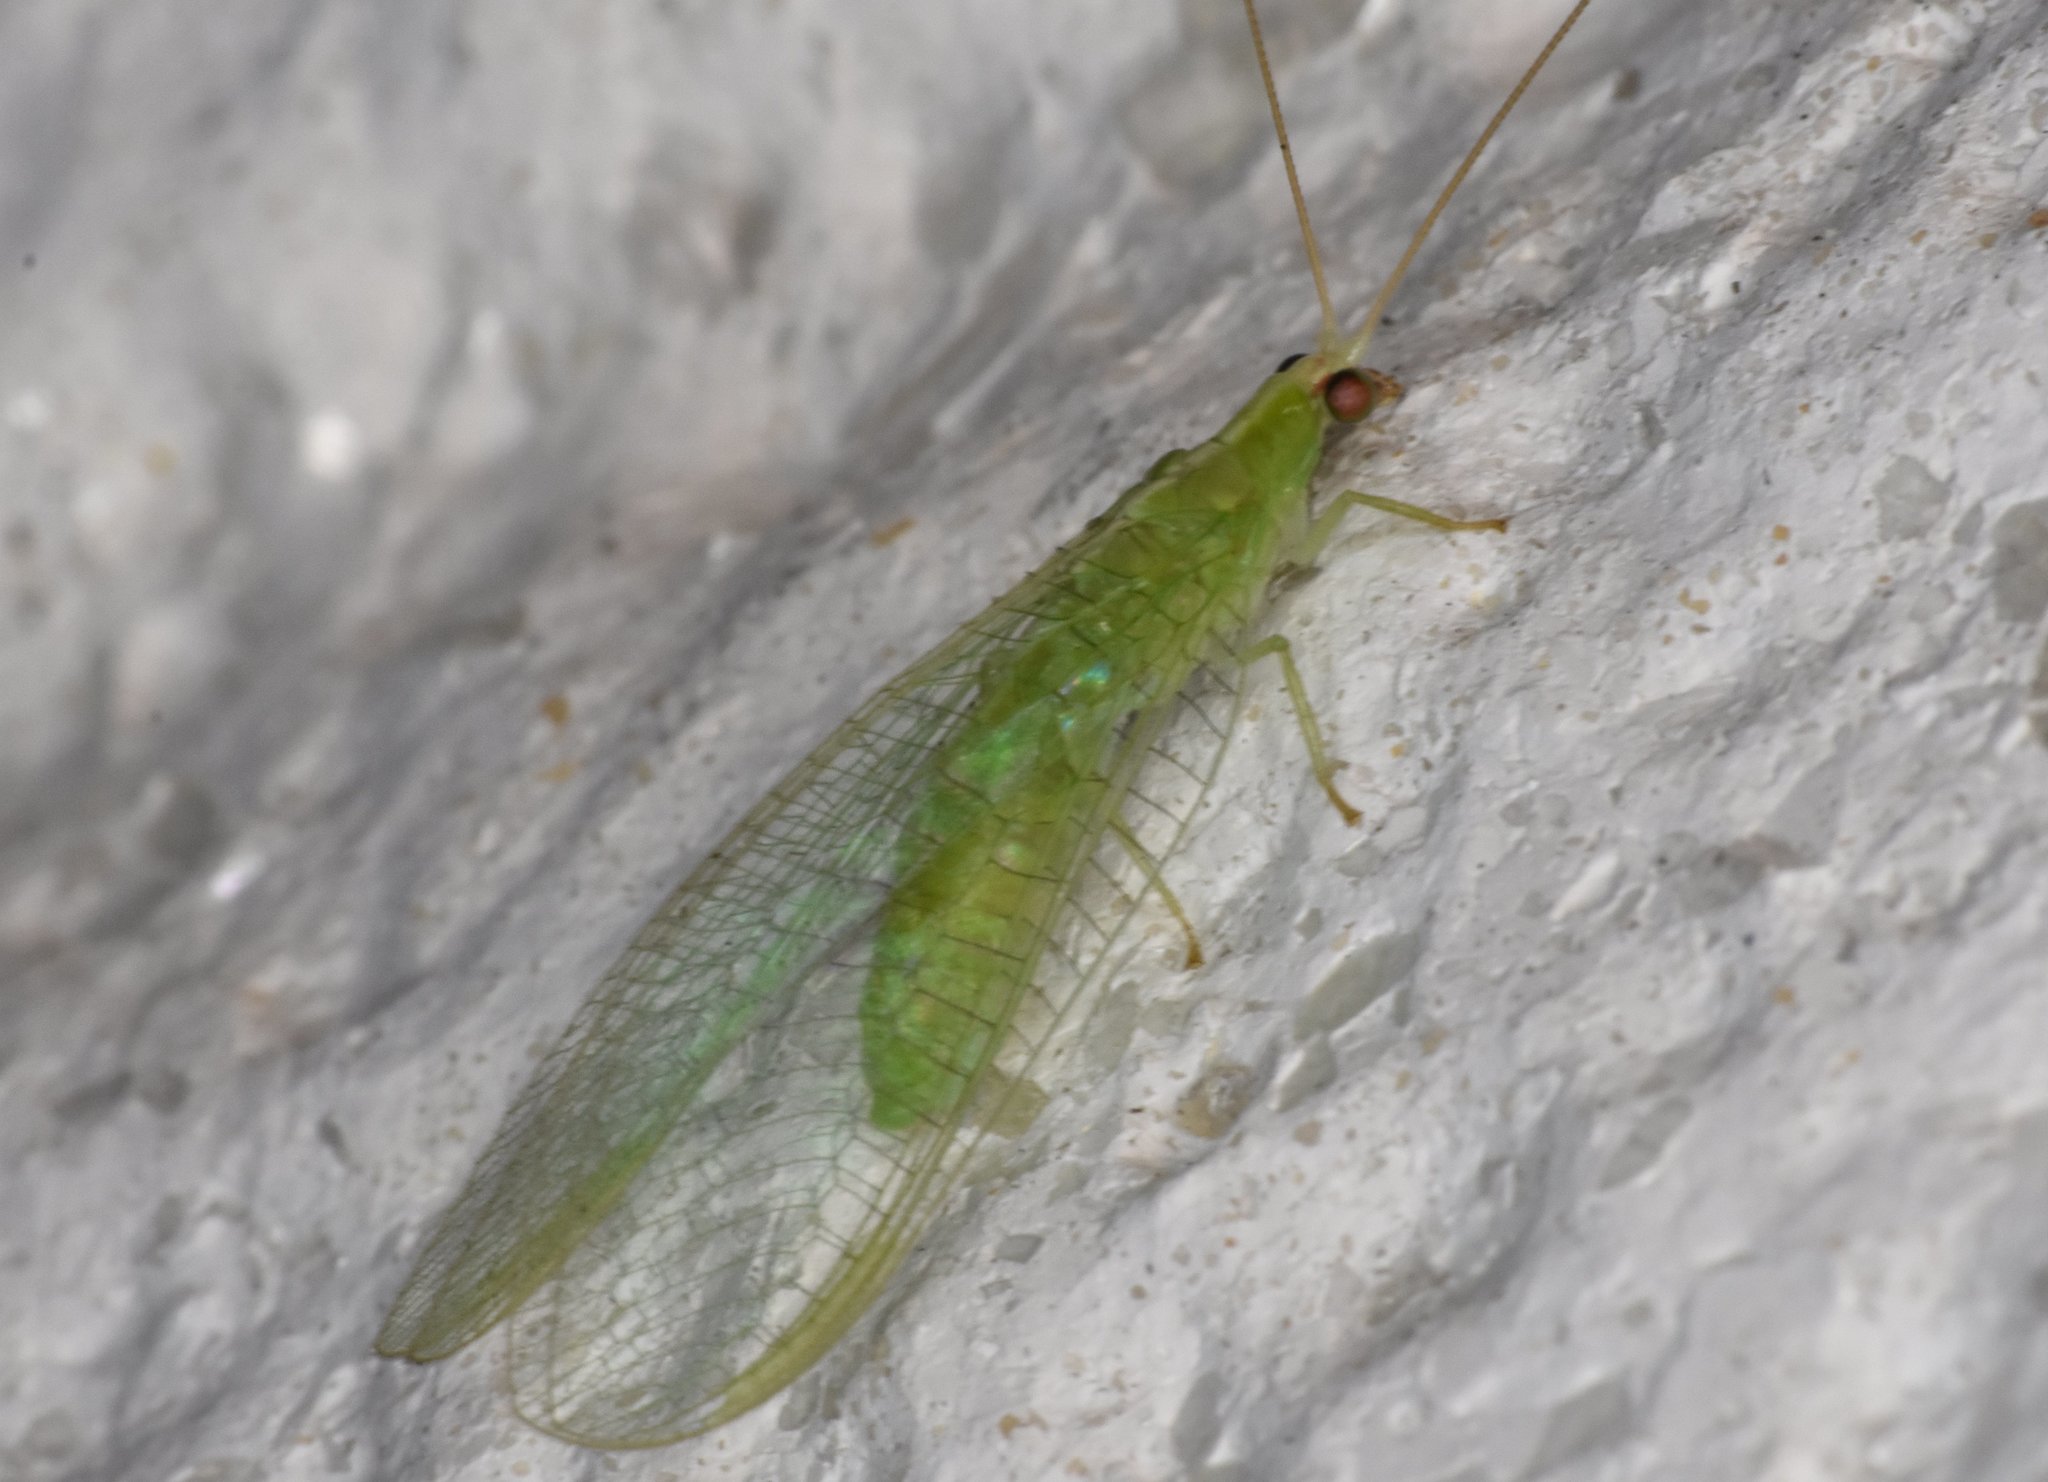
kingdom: Animalia
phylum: Arthropoda
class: Insecta
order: Neuroptera
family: Chrysopidae
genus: Chrysopodes
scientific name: Chrysopodes collaris
